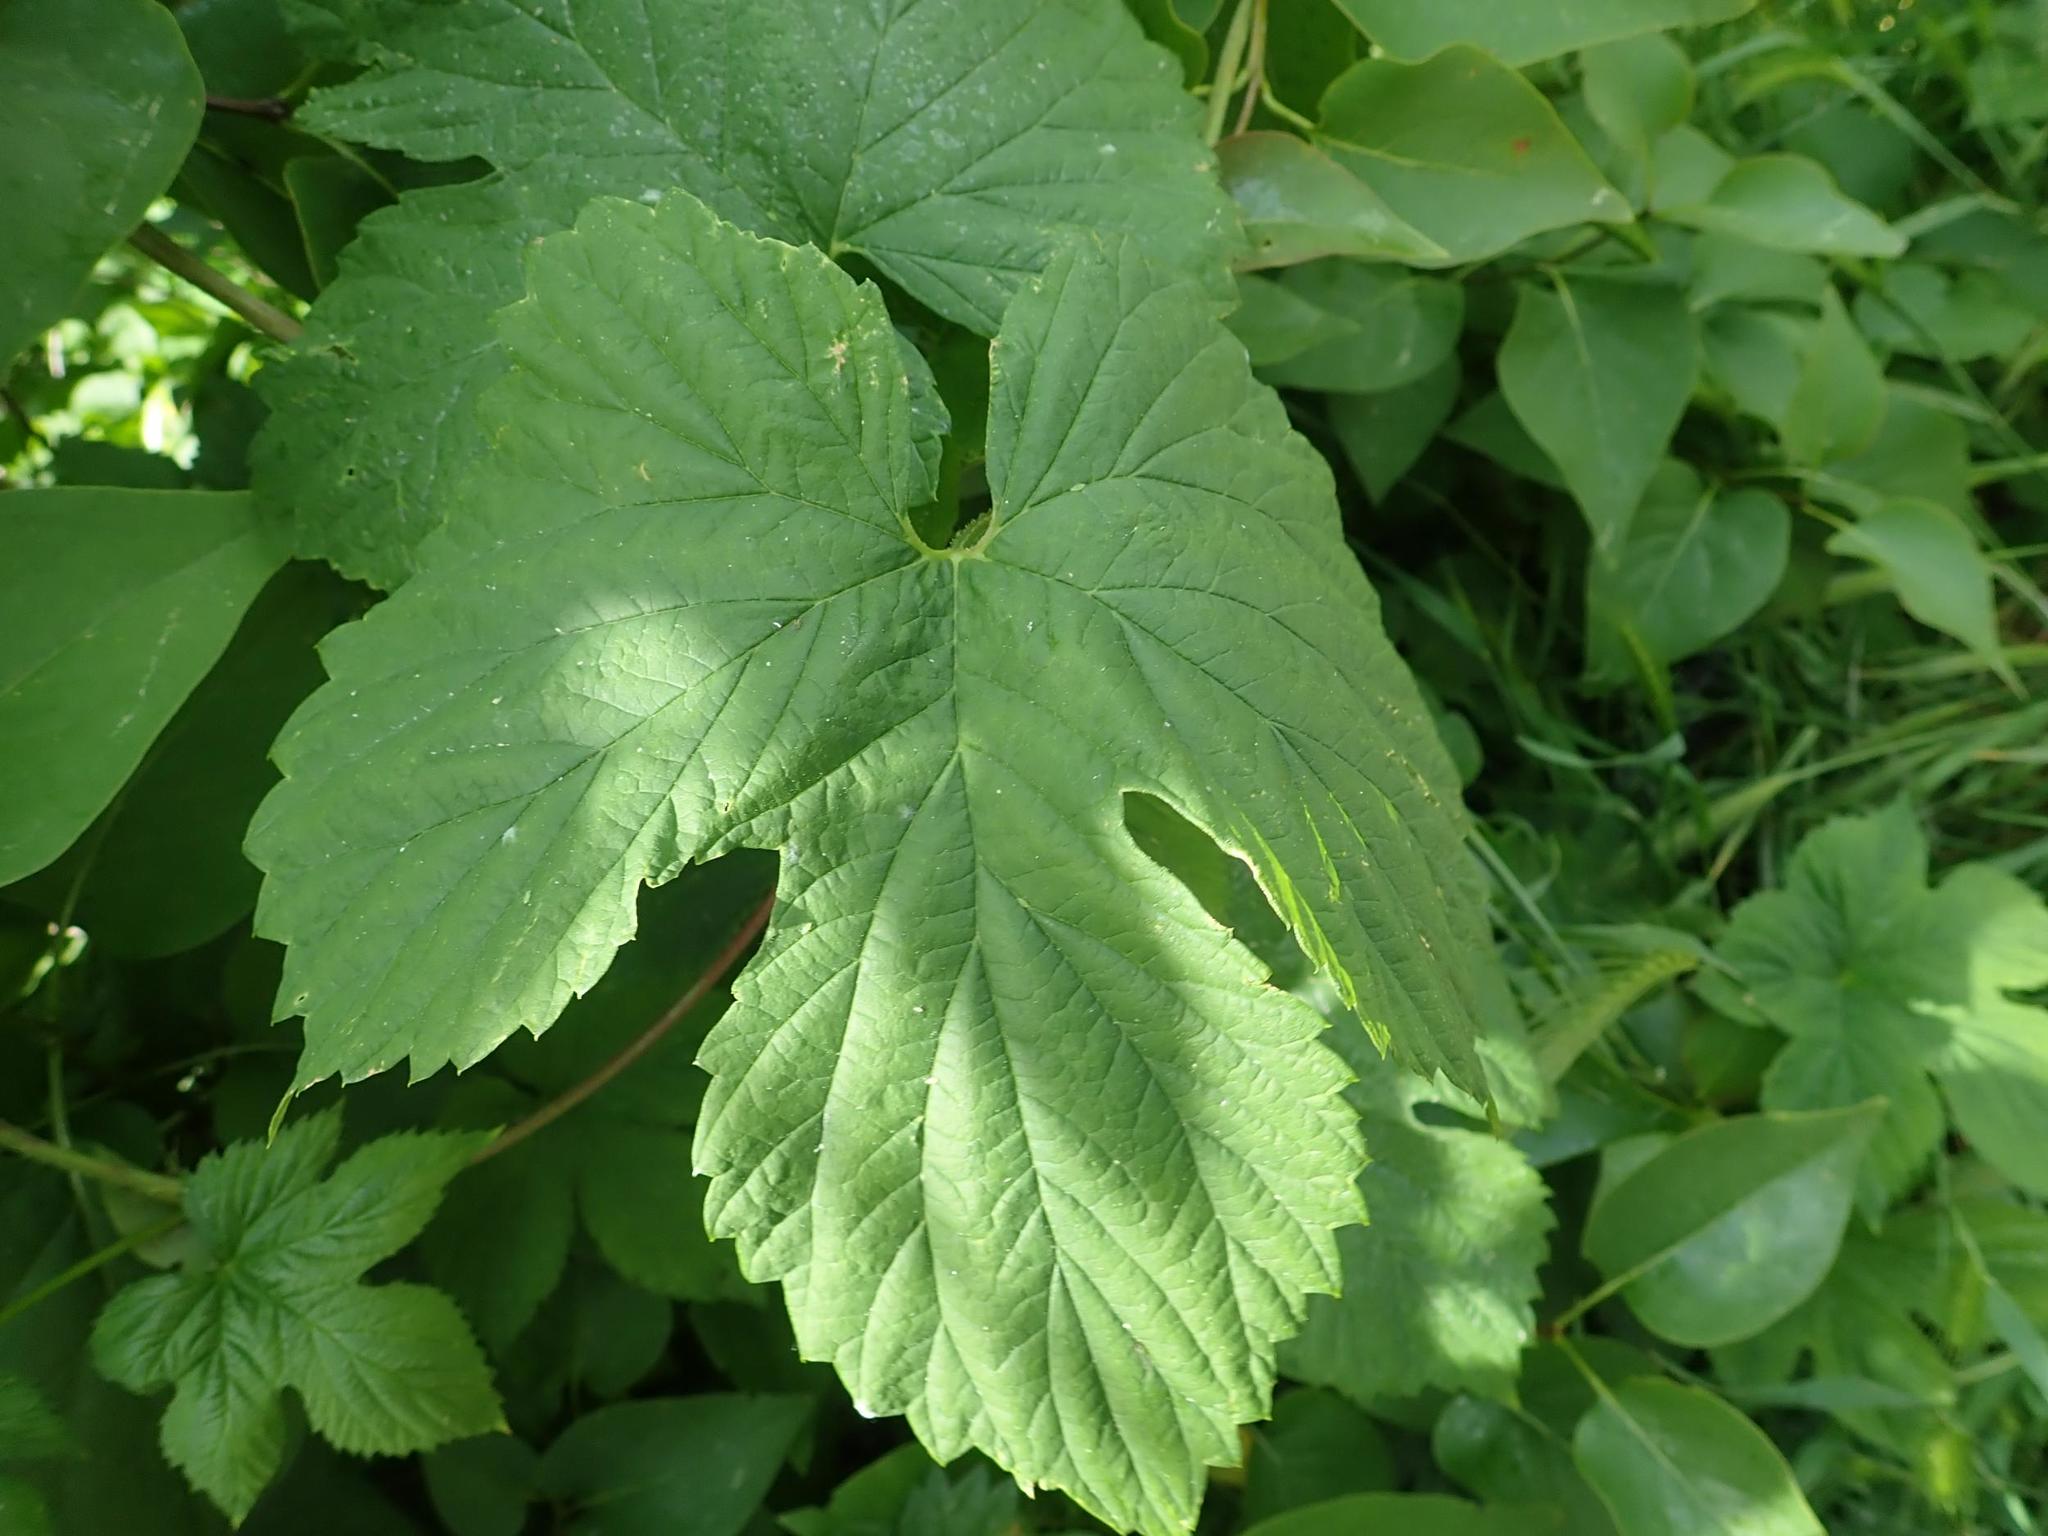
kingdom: Plantae
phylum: Tracheophyta
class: Magnoliopsida
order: Rosales
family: Cannabaceae
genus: Humulus
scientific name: Humulus lupulus
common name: Hop
